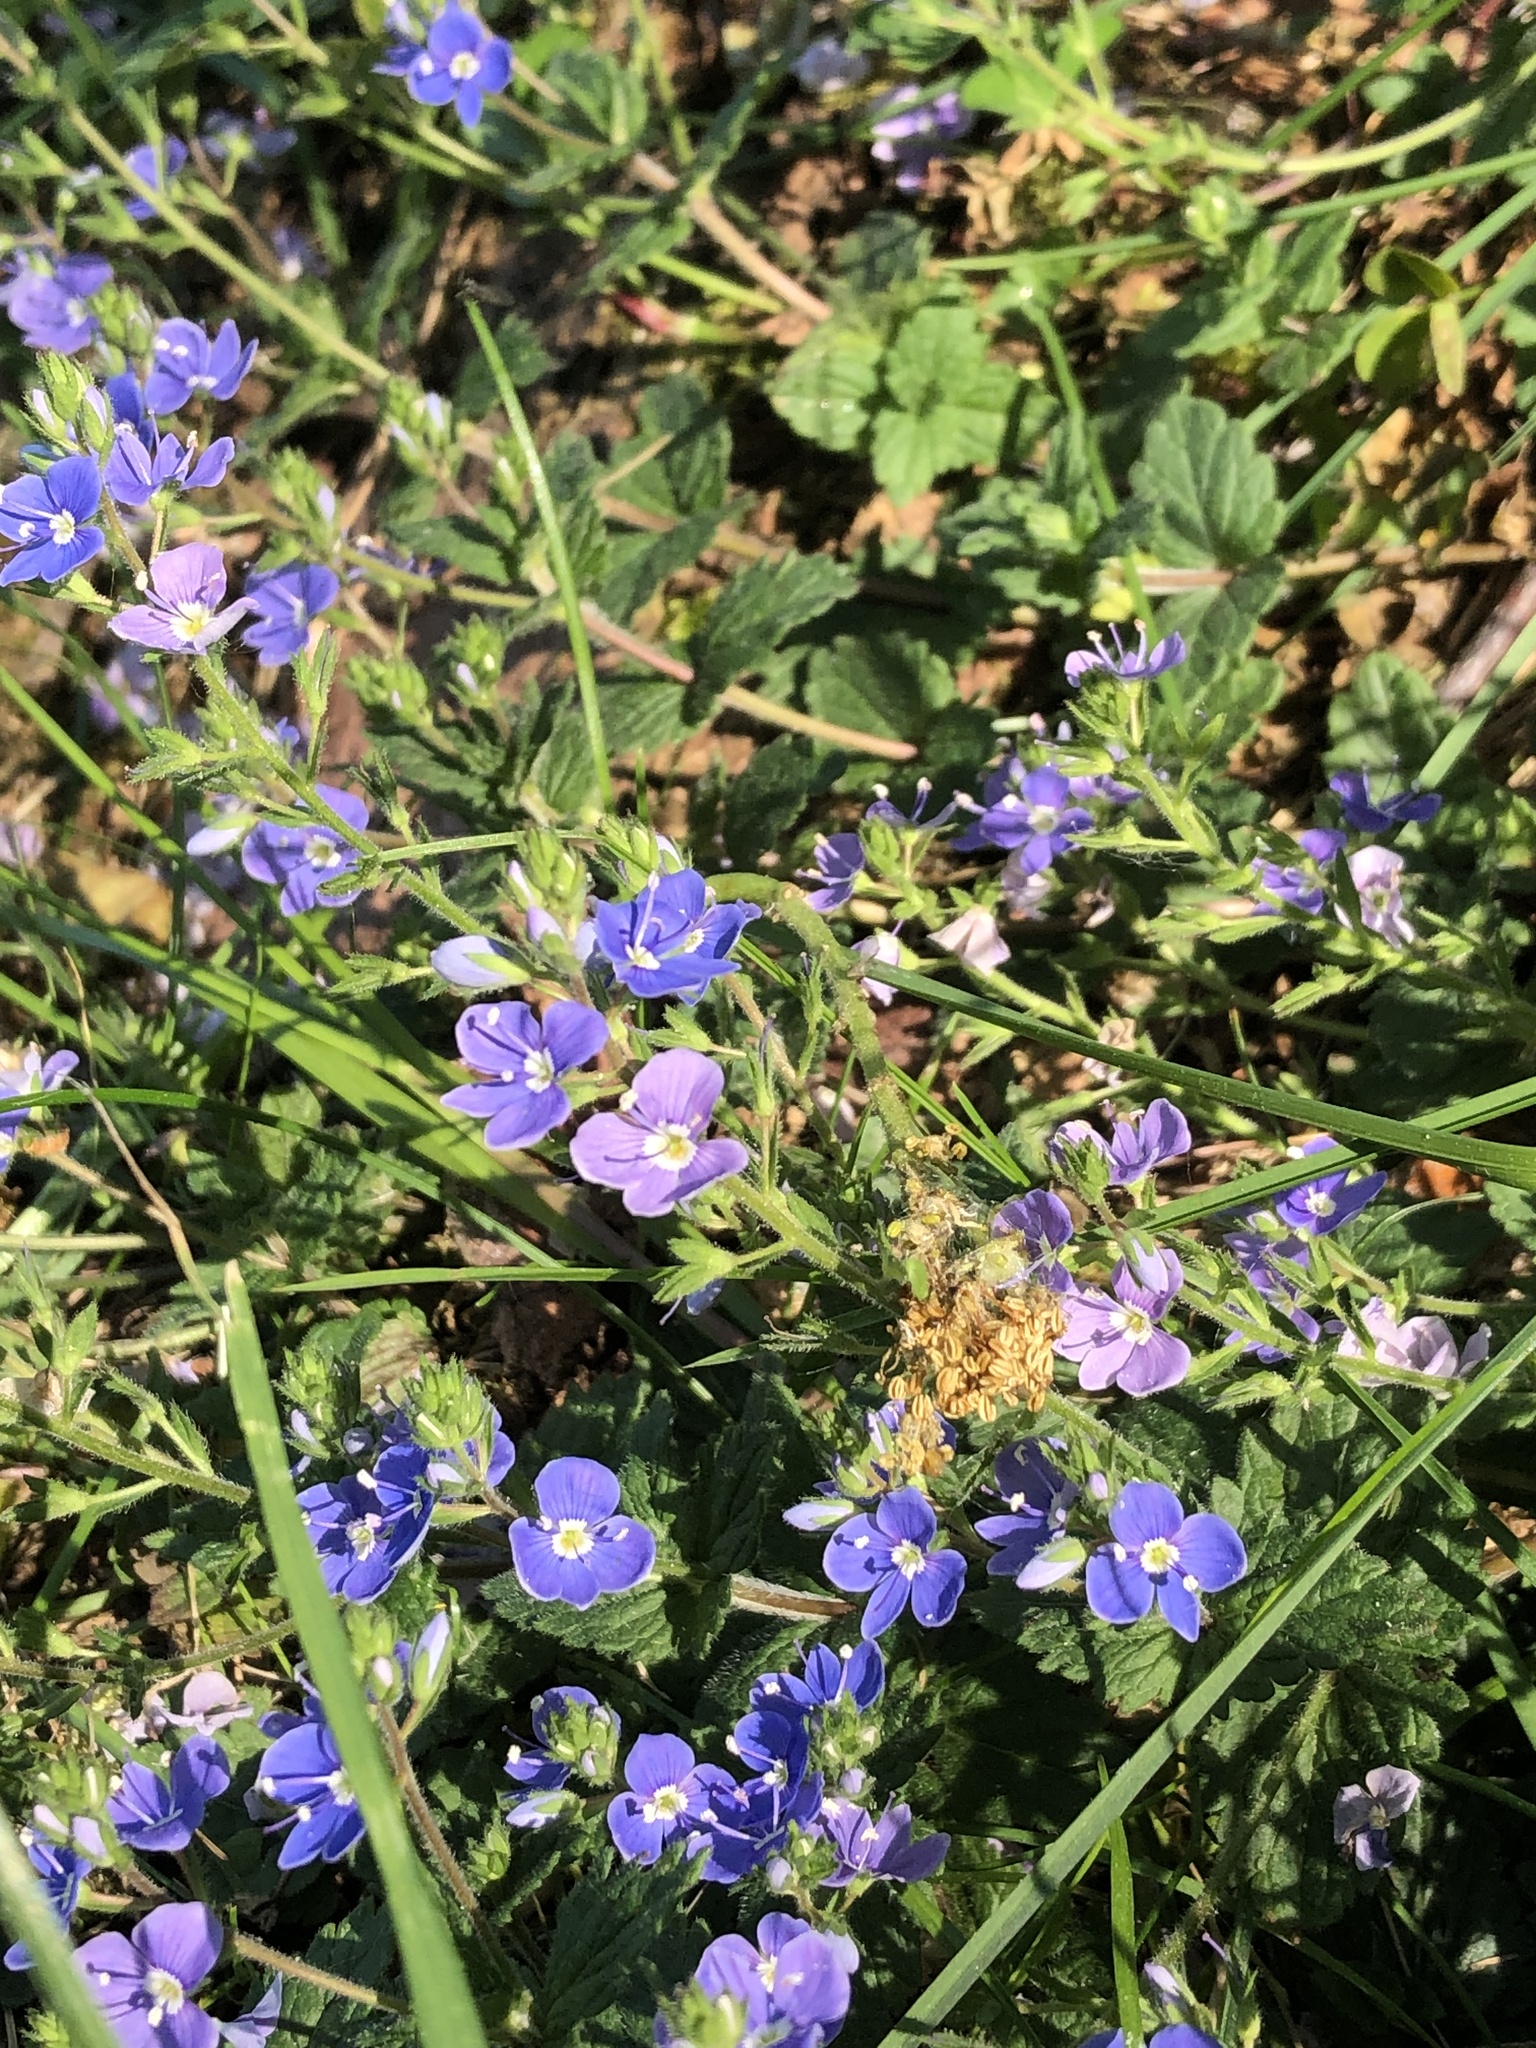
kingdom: Plantae
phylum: Tracheophyta
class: Magnoliopsida
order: Lamiales
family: Plantaginaceae
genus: Veronica
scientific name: Veronica chamaedrys
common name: Germander speedwell
